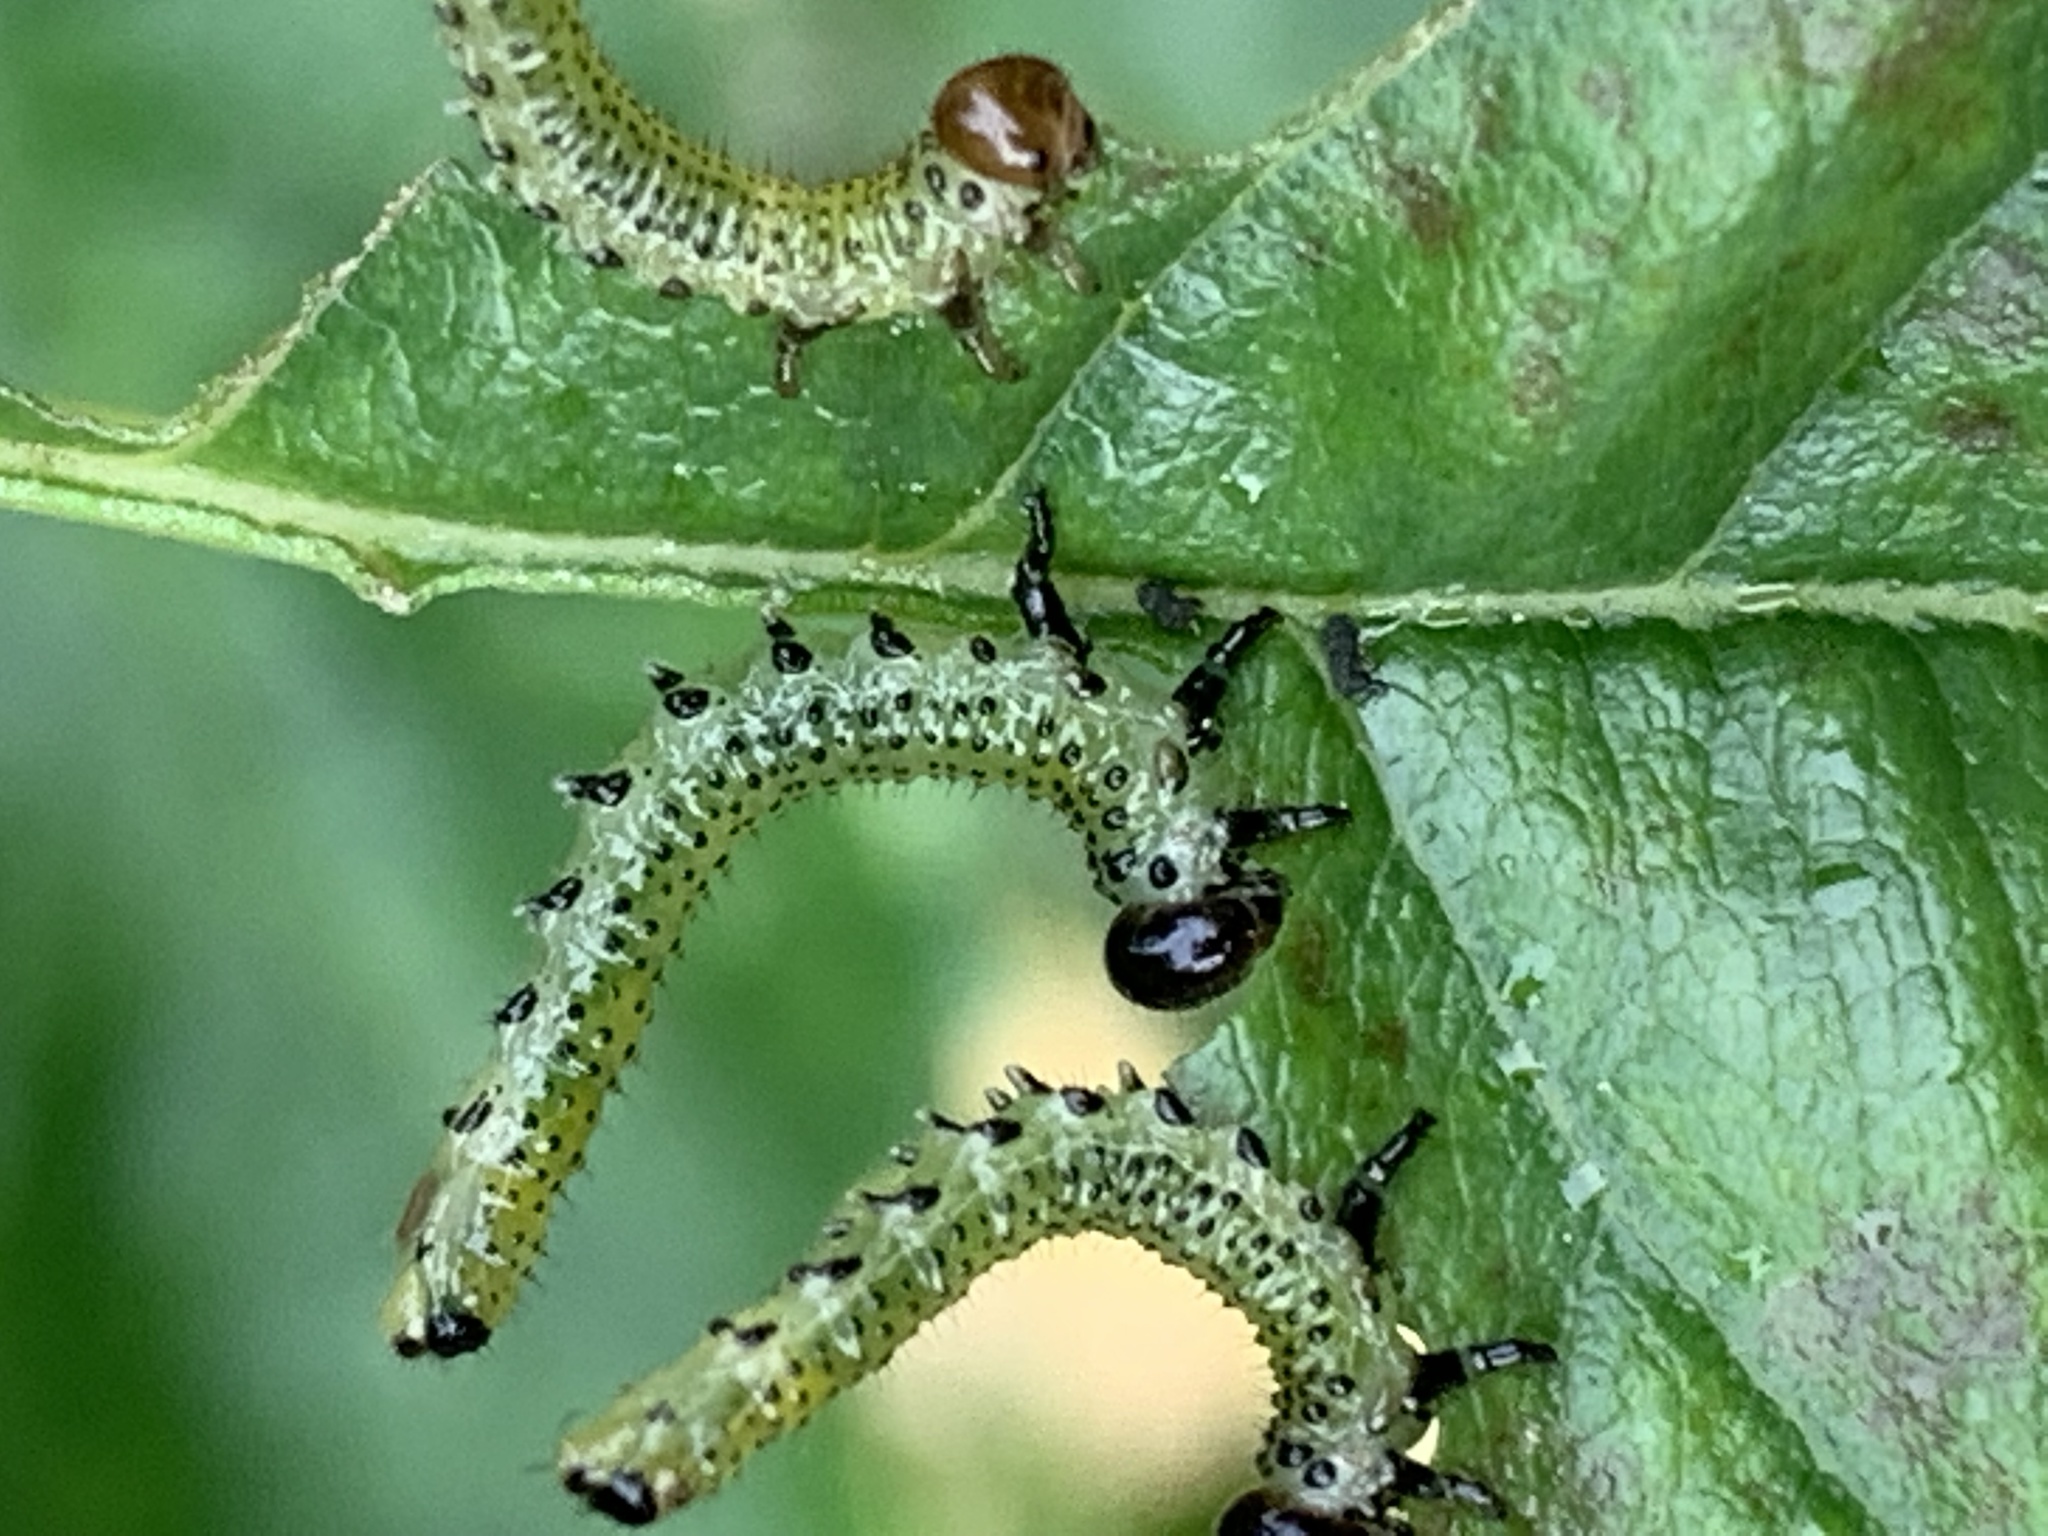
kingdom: Animalia
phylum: Arthropoda
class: Insecta
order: Hymenoptera
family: Argidae
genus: Arge
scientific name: Arge pagana
